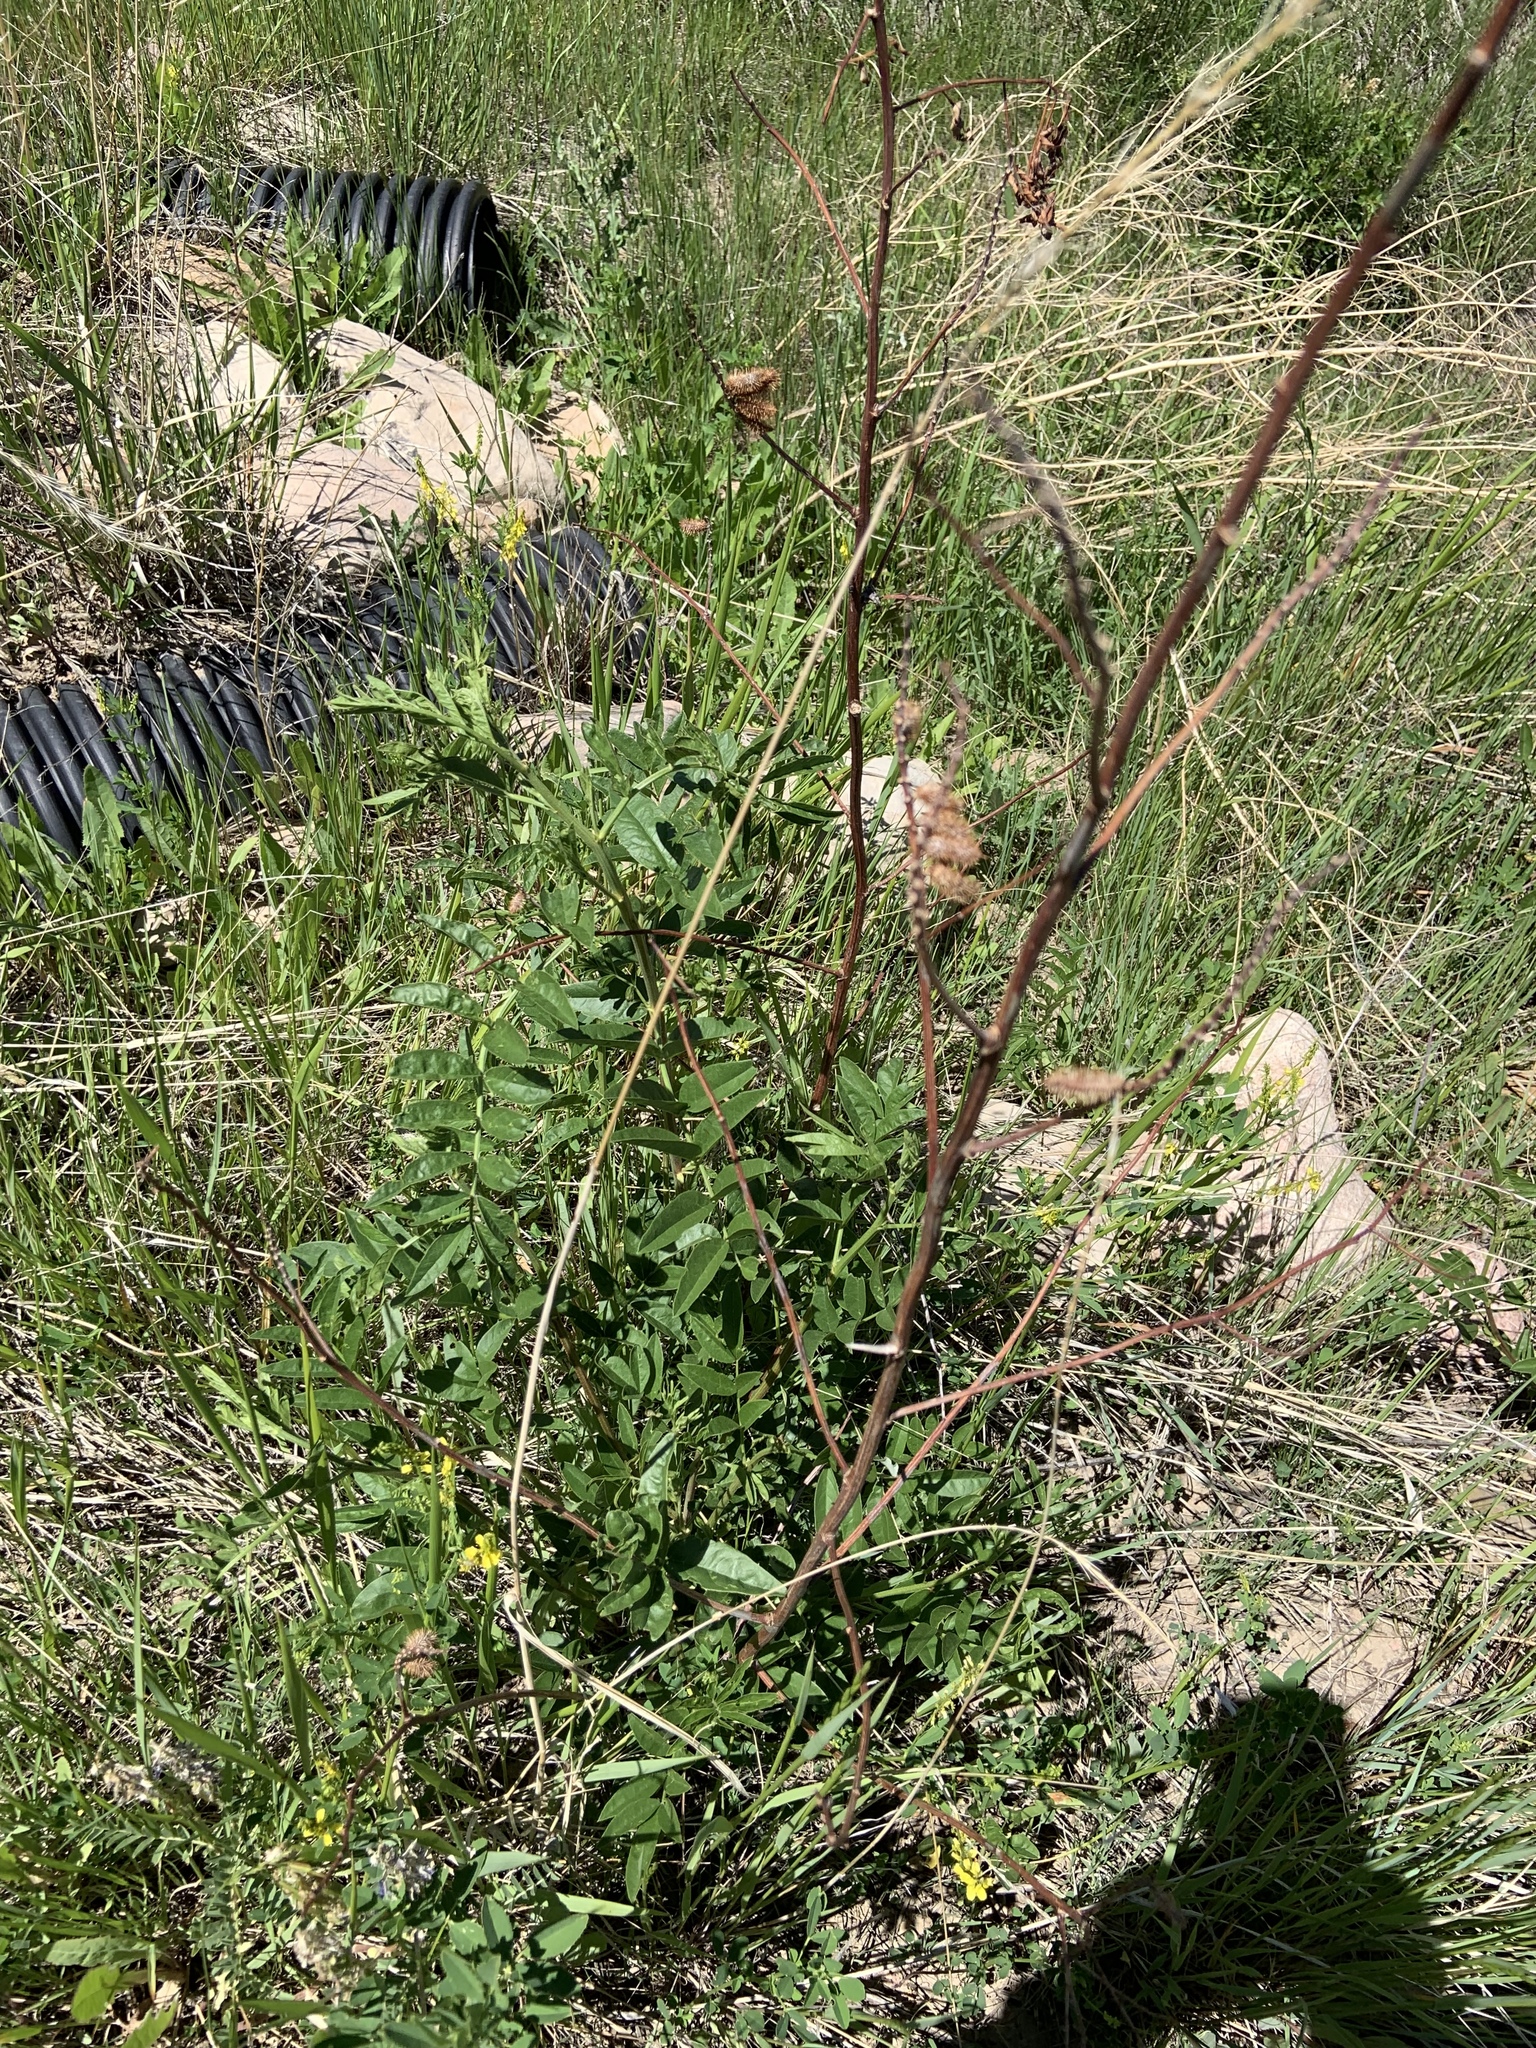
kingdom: Plantae
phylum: Tracheophyta
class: Magnoliopsida
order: Fabales
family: Fabaceae
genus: Glycyrrhiza
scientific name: Glycyrrhiza lepidota
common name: American liquorice
